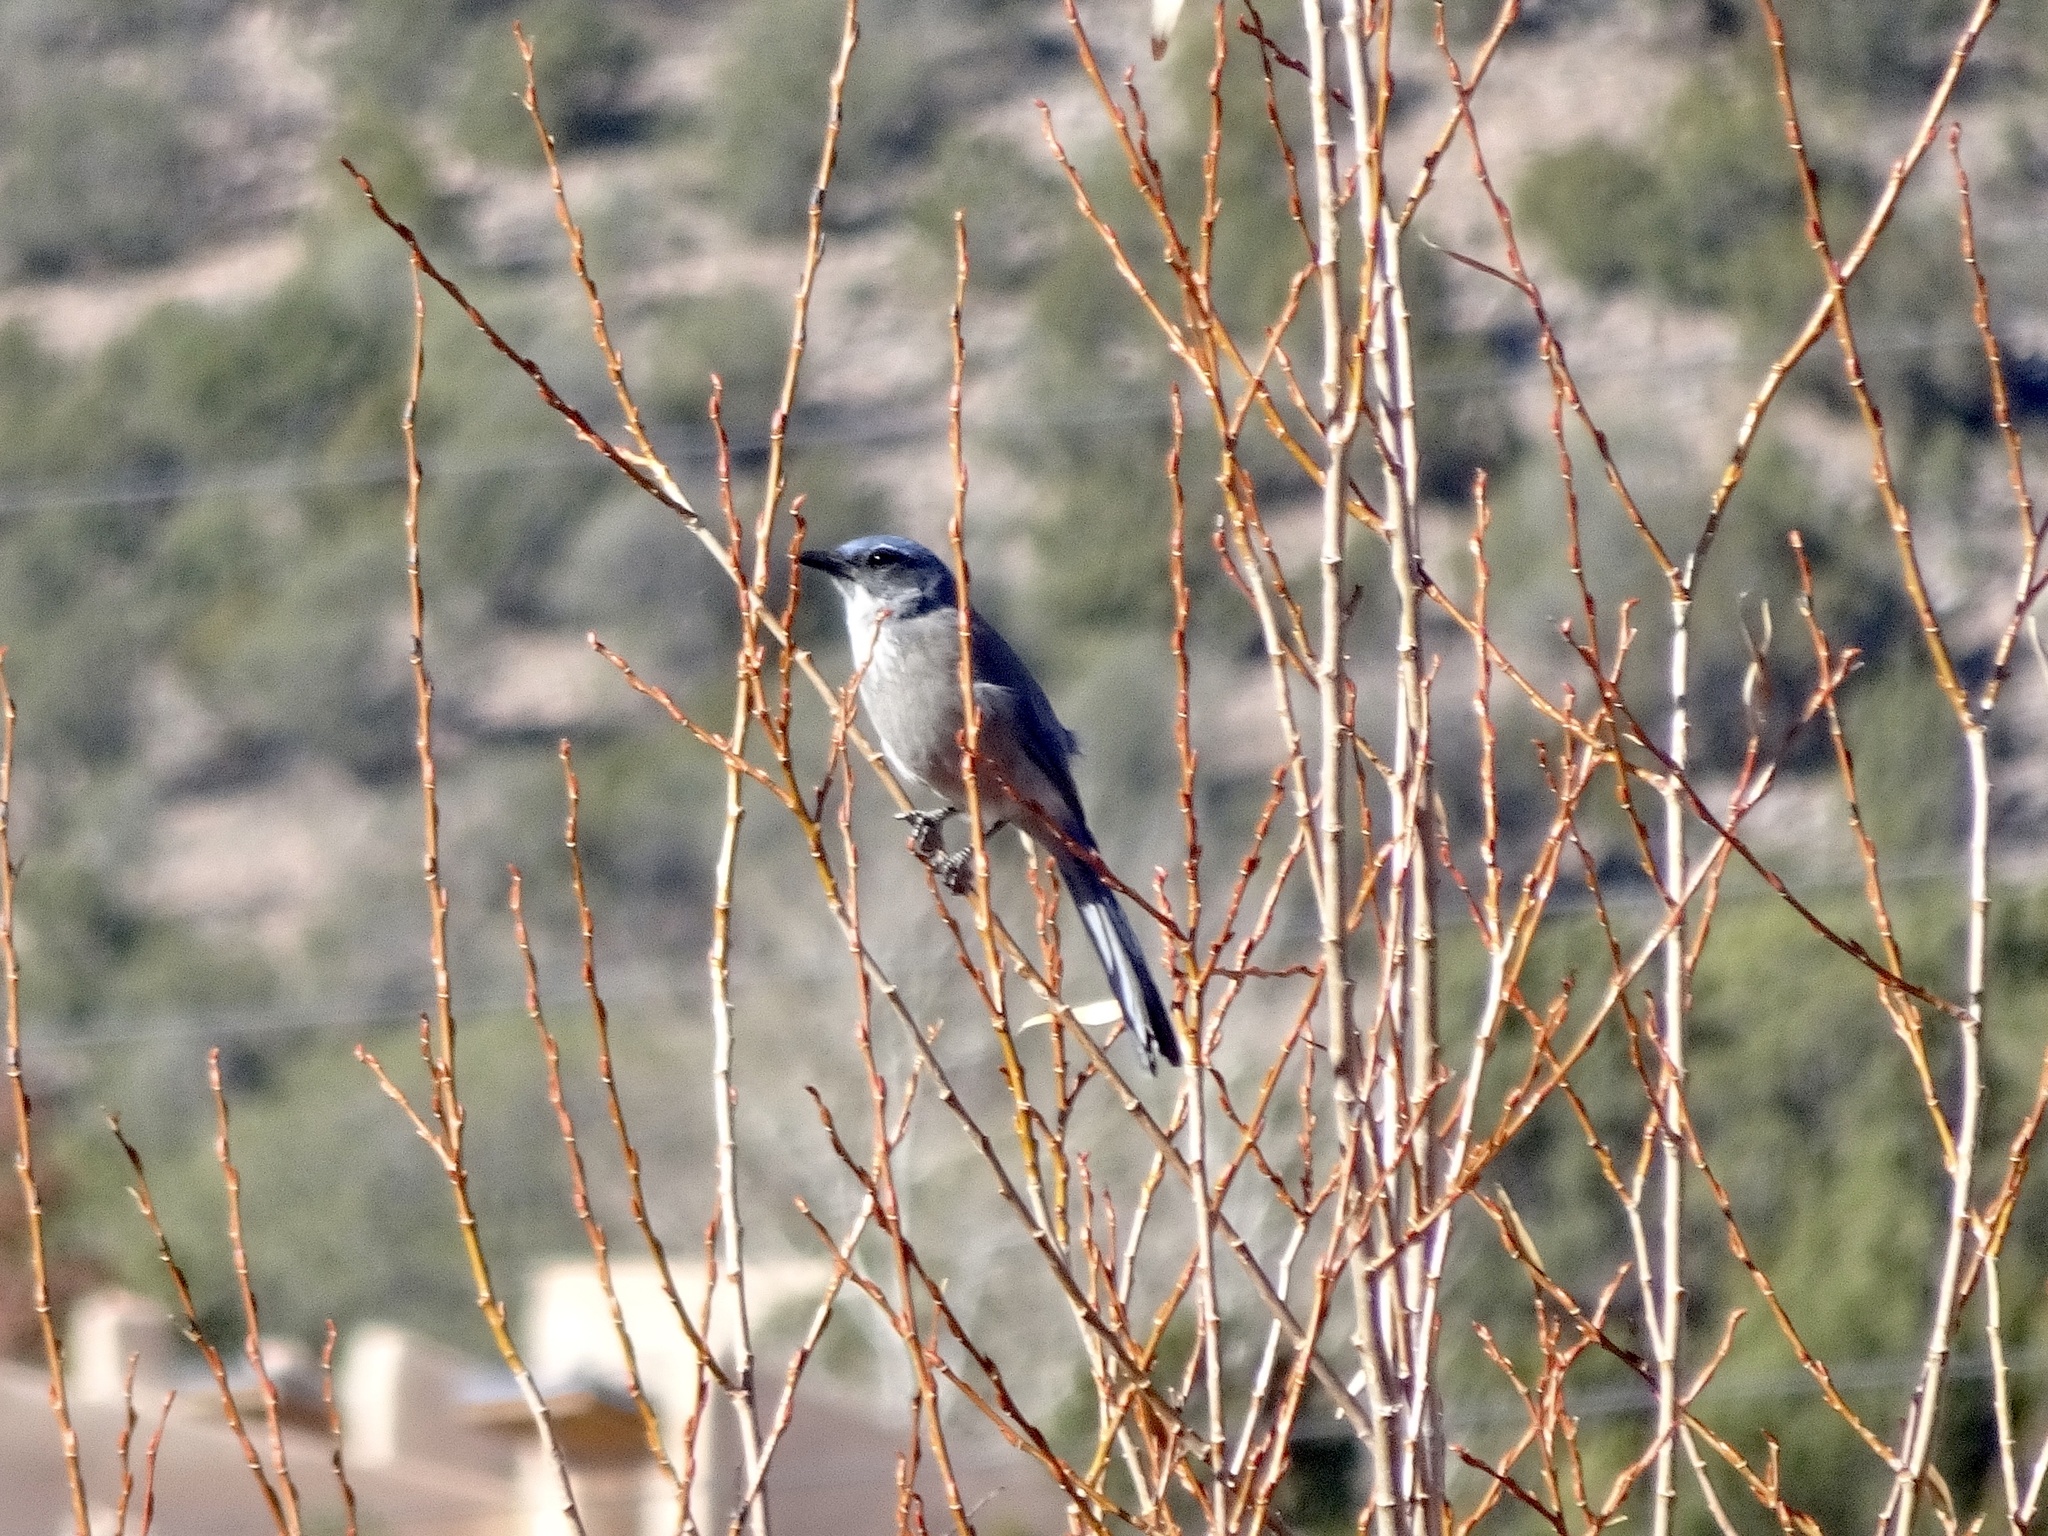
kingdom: Animalia
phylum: Chordata
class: Aves
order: Passeriformes
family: Corvidae
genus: Aphelocoma
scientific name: Aphelocoma woodhouseii
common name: Woodhouse's scrub-jay
